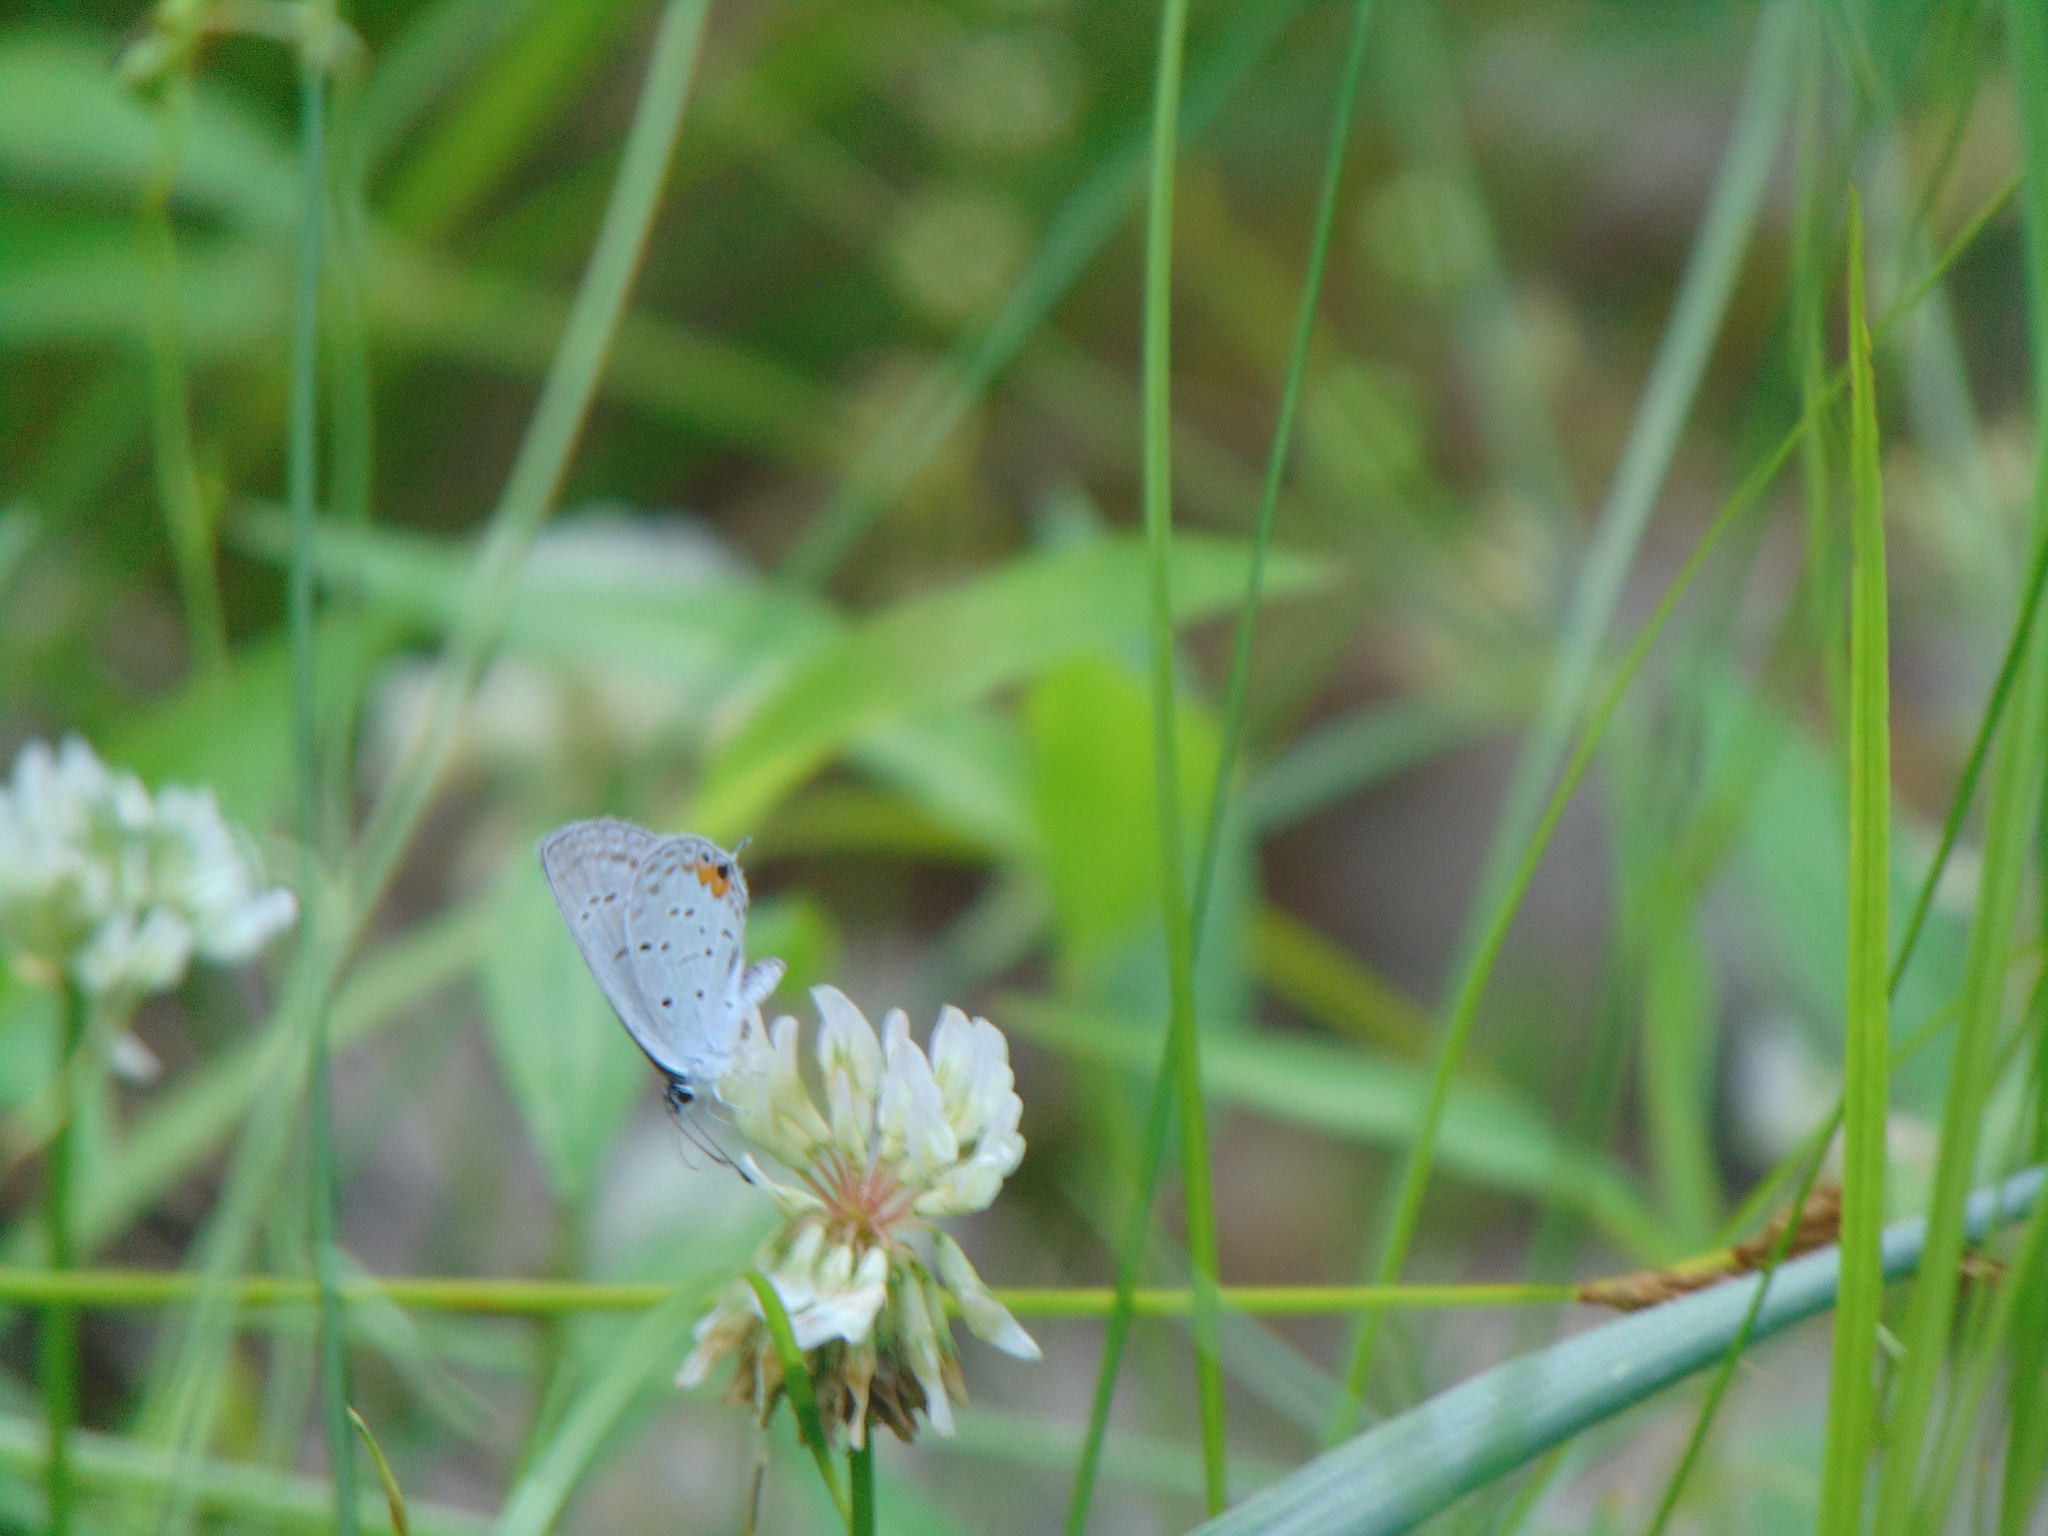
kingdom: Animalia
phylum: Arthropoda
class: Insecta
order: Lepidoptera
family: Lycaenidae
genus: Elkalyce
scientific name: Elkalyce comyntas
